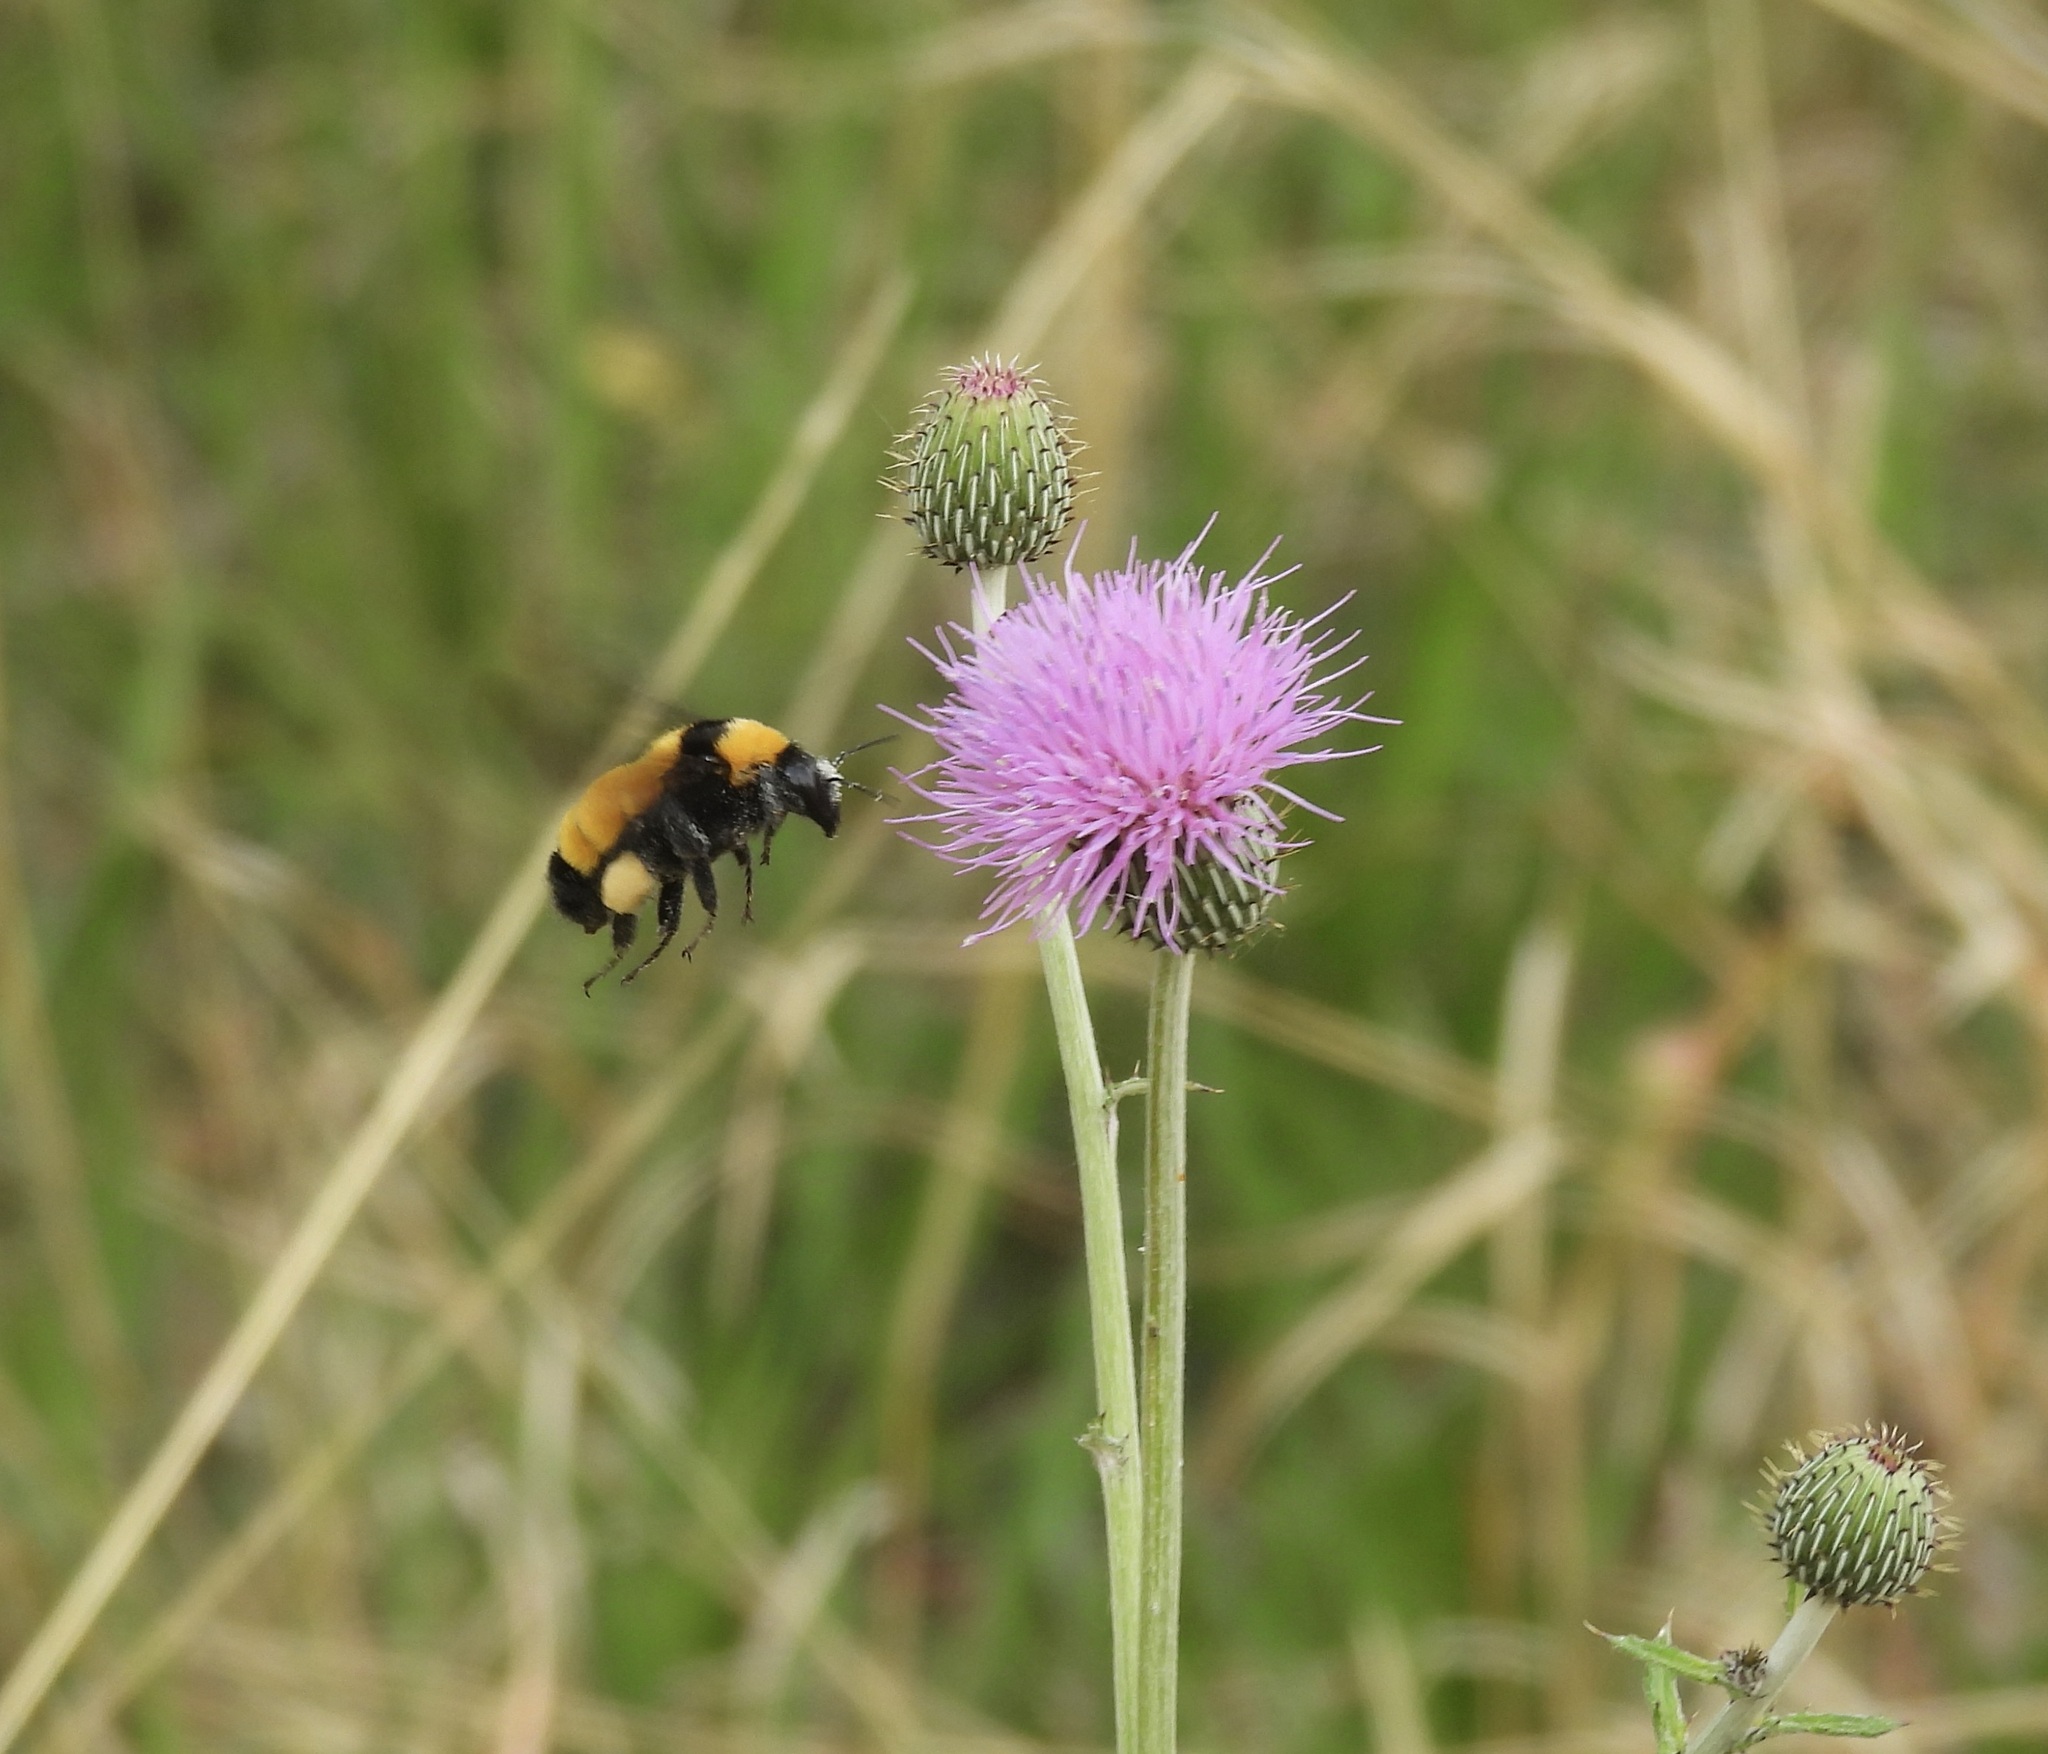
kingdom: Animalia
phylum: Arthropoda
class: Insecta
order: Hymenoptera
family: Apidae
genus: Bombus
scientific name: Bombus sonorus
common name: Sonoran bumble bee
